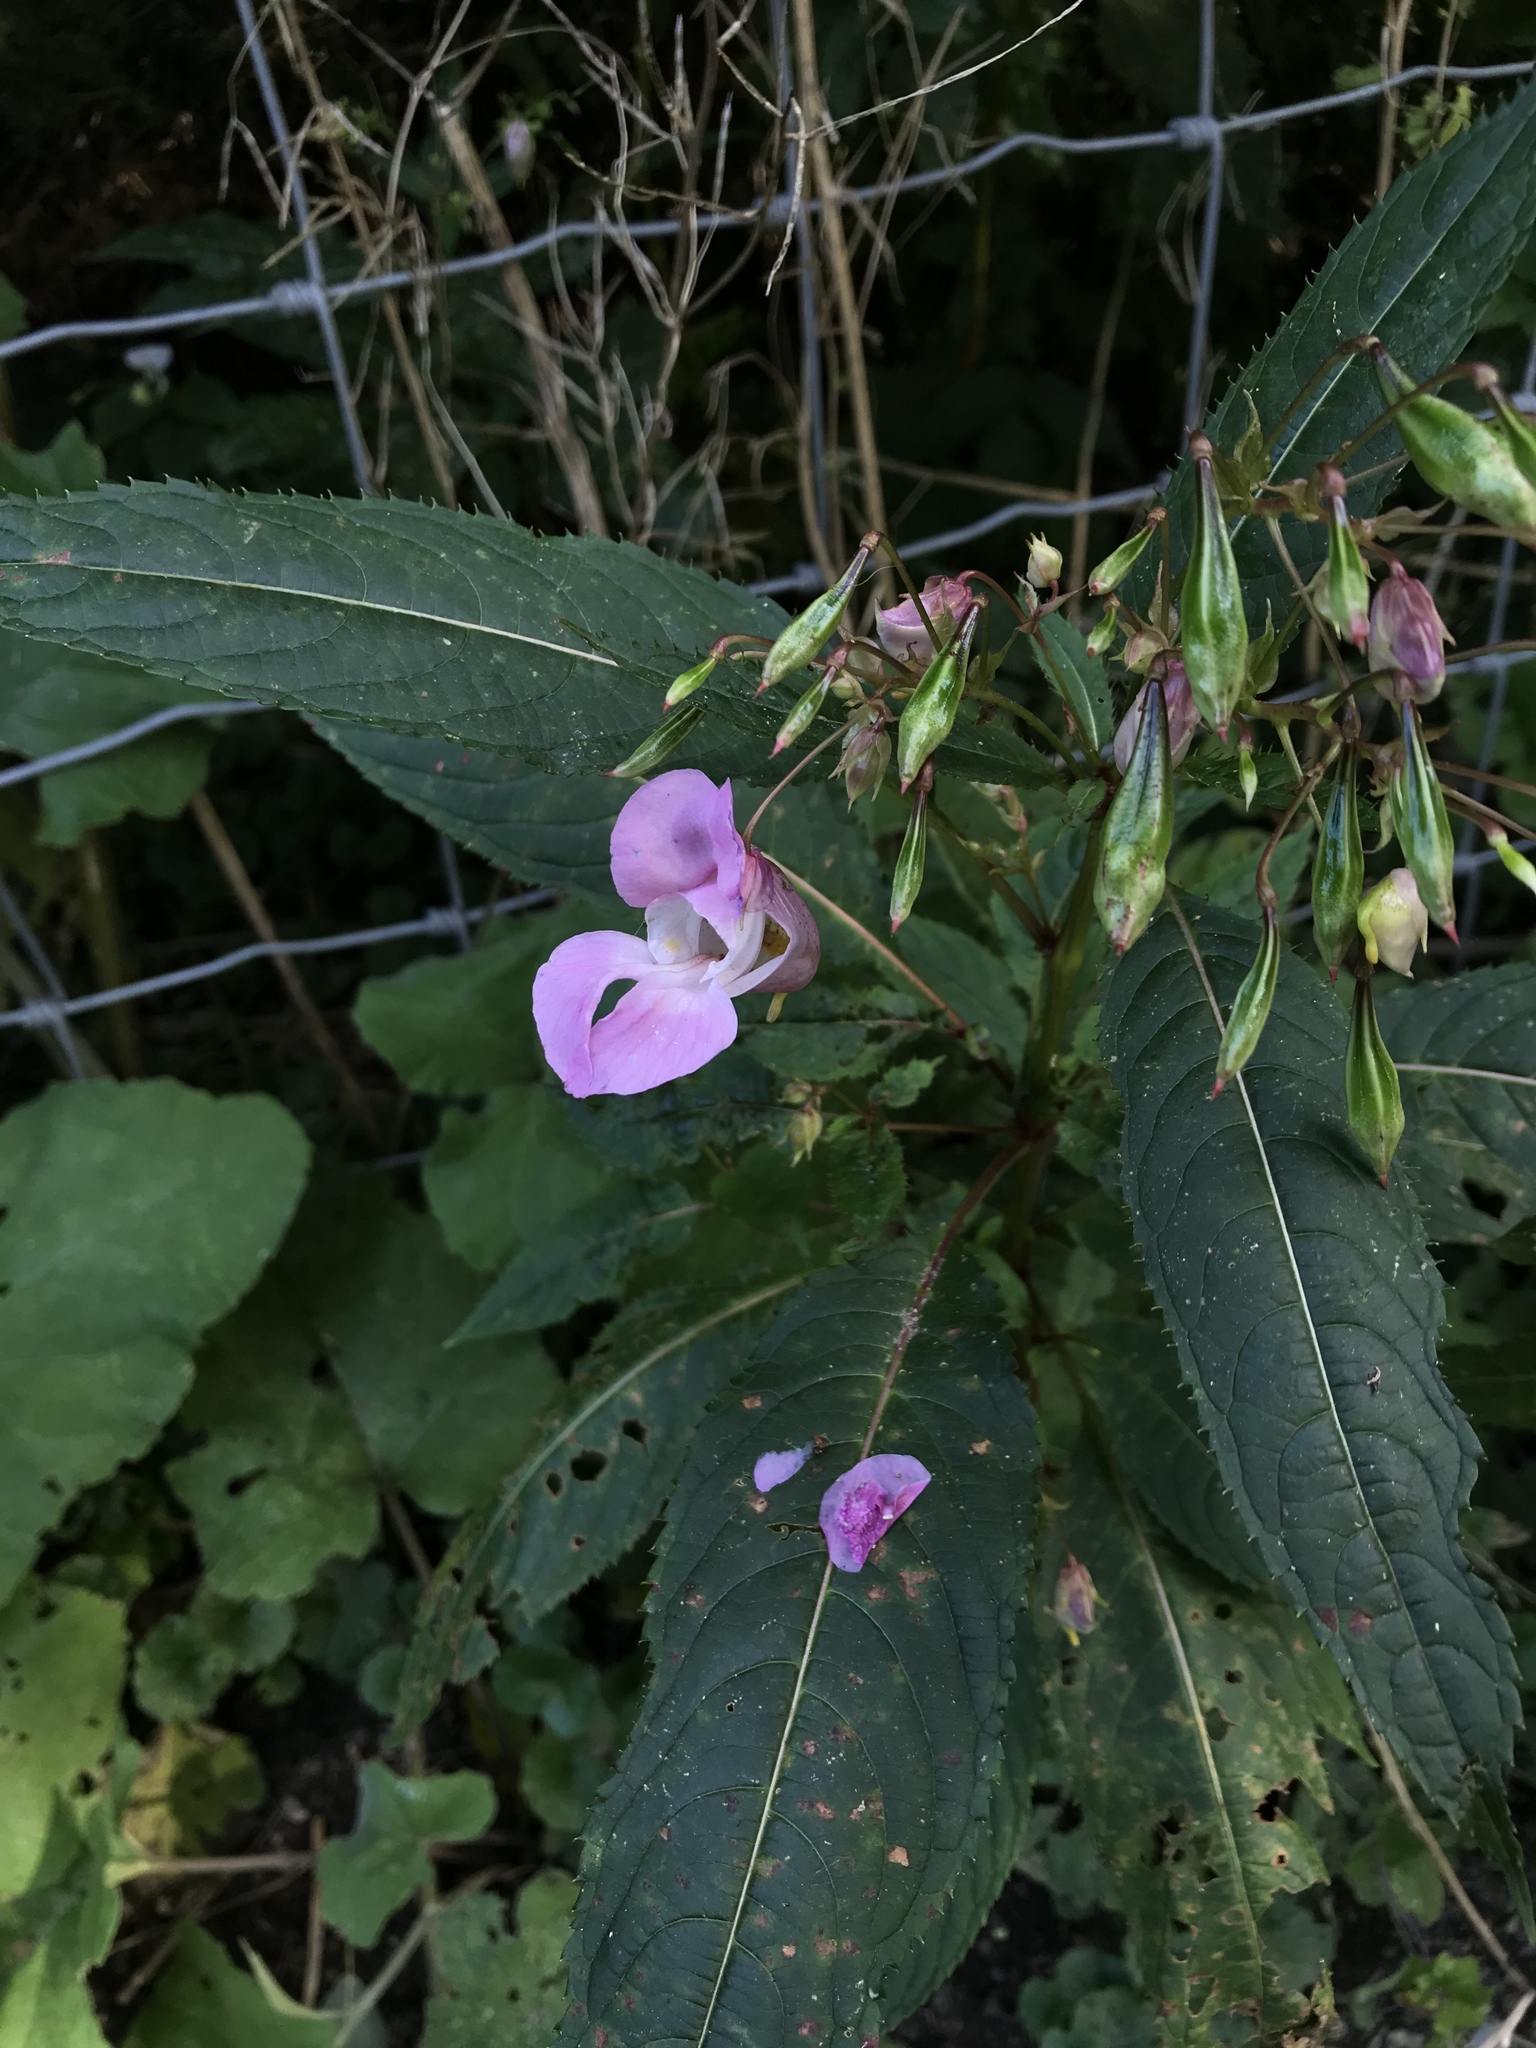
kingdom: Plantae
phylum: Tracheophyta
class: Magnoliopsida
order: Ericales
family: Balsaminaceae
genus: Impatiens
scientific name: Impatiens glandulifera
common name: Himalayan balsam
